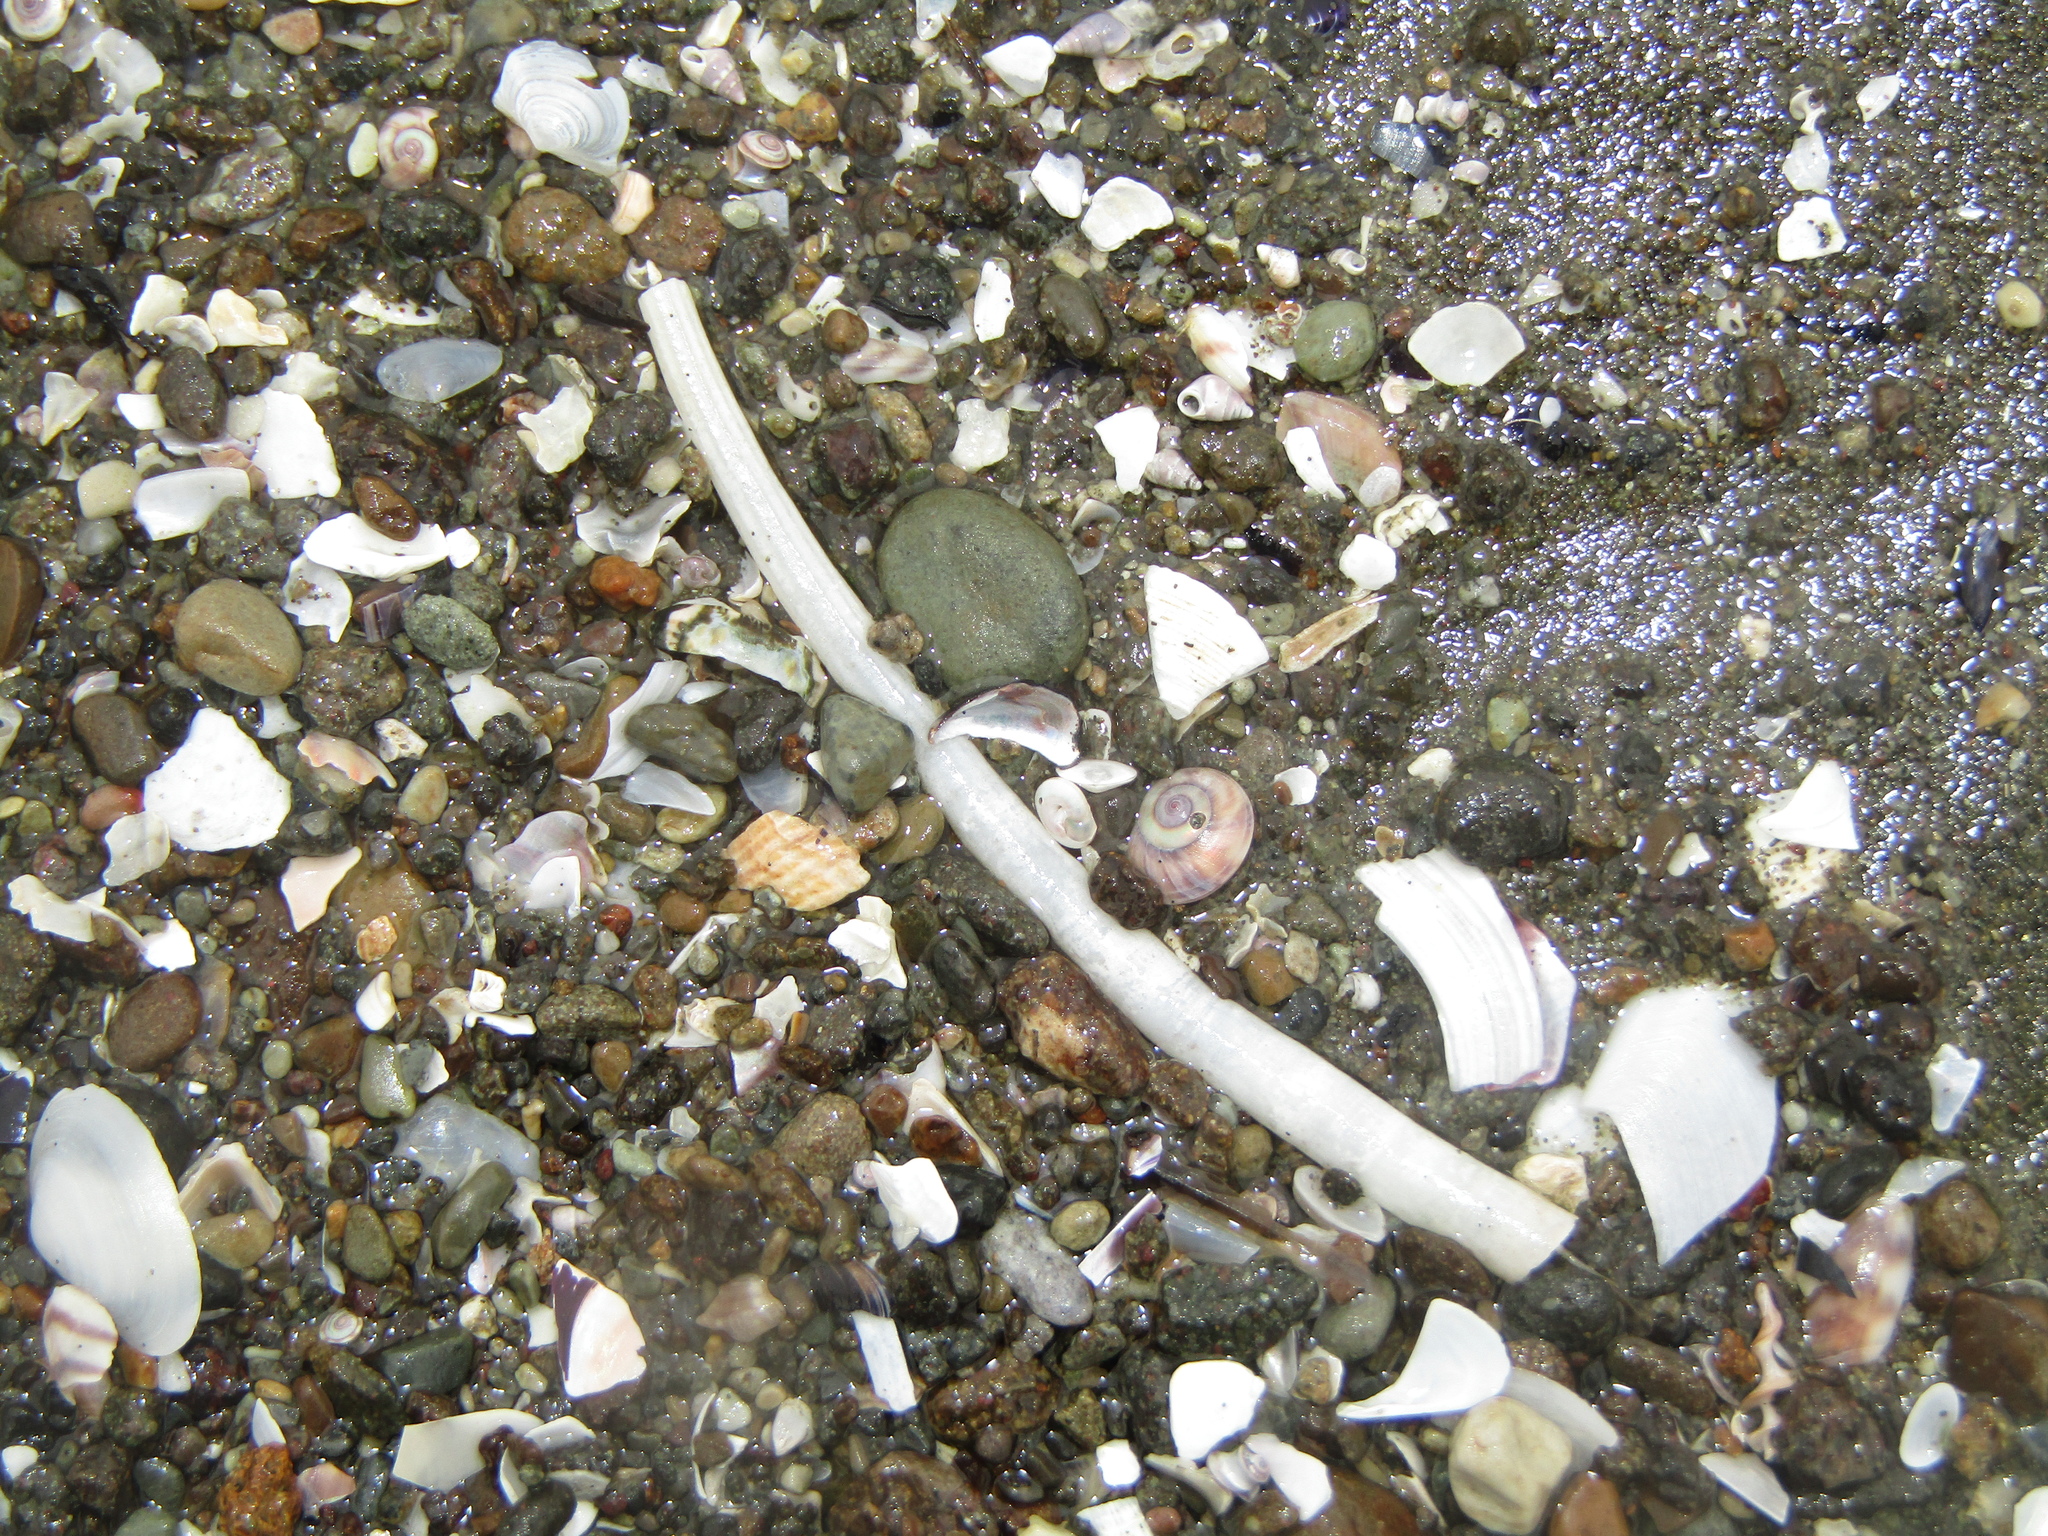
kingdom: Animalia
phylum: Mollusca
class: Scaphopoda
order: Dentaliida
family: Dentaliidae
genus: Antalis
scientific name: Antalis nana
